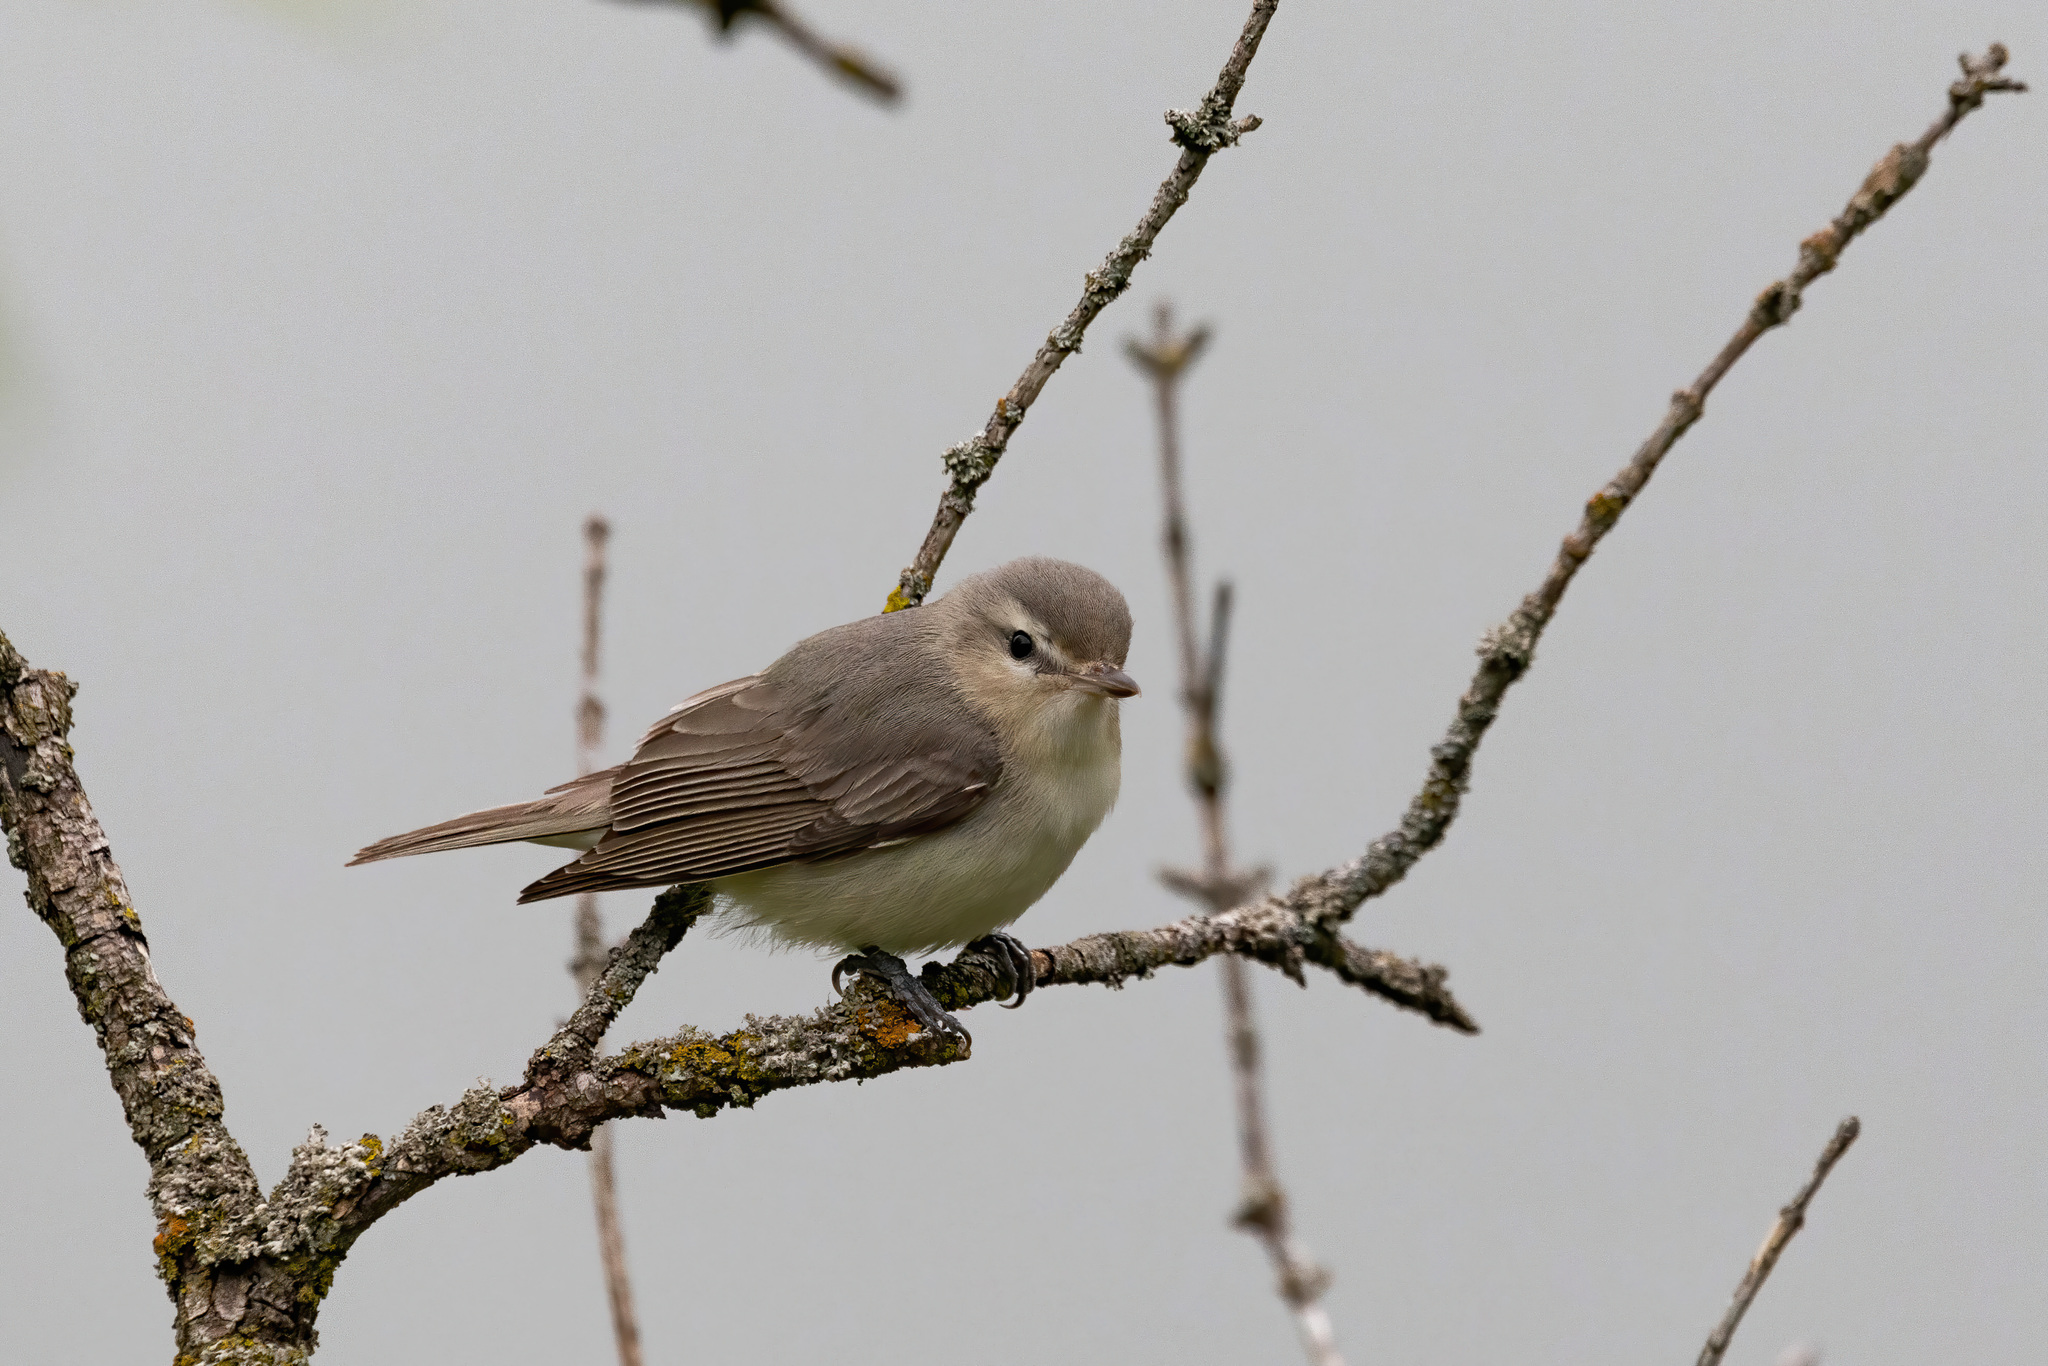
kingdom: Animalia
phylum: Chordata
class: Aves
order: Passeriformes
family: Vireonidae
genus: Vireo
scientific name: Vireo gilvus
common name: Warbling vireo
